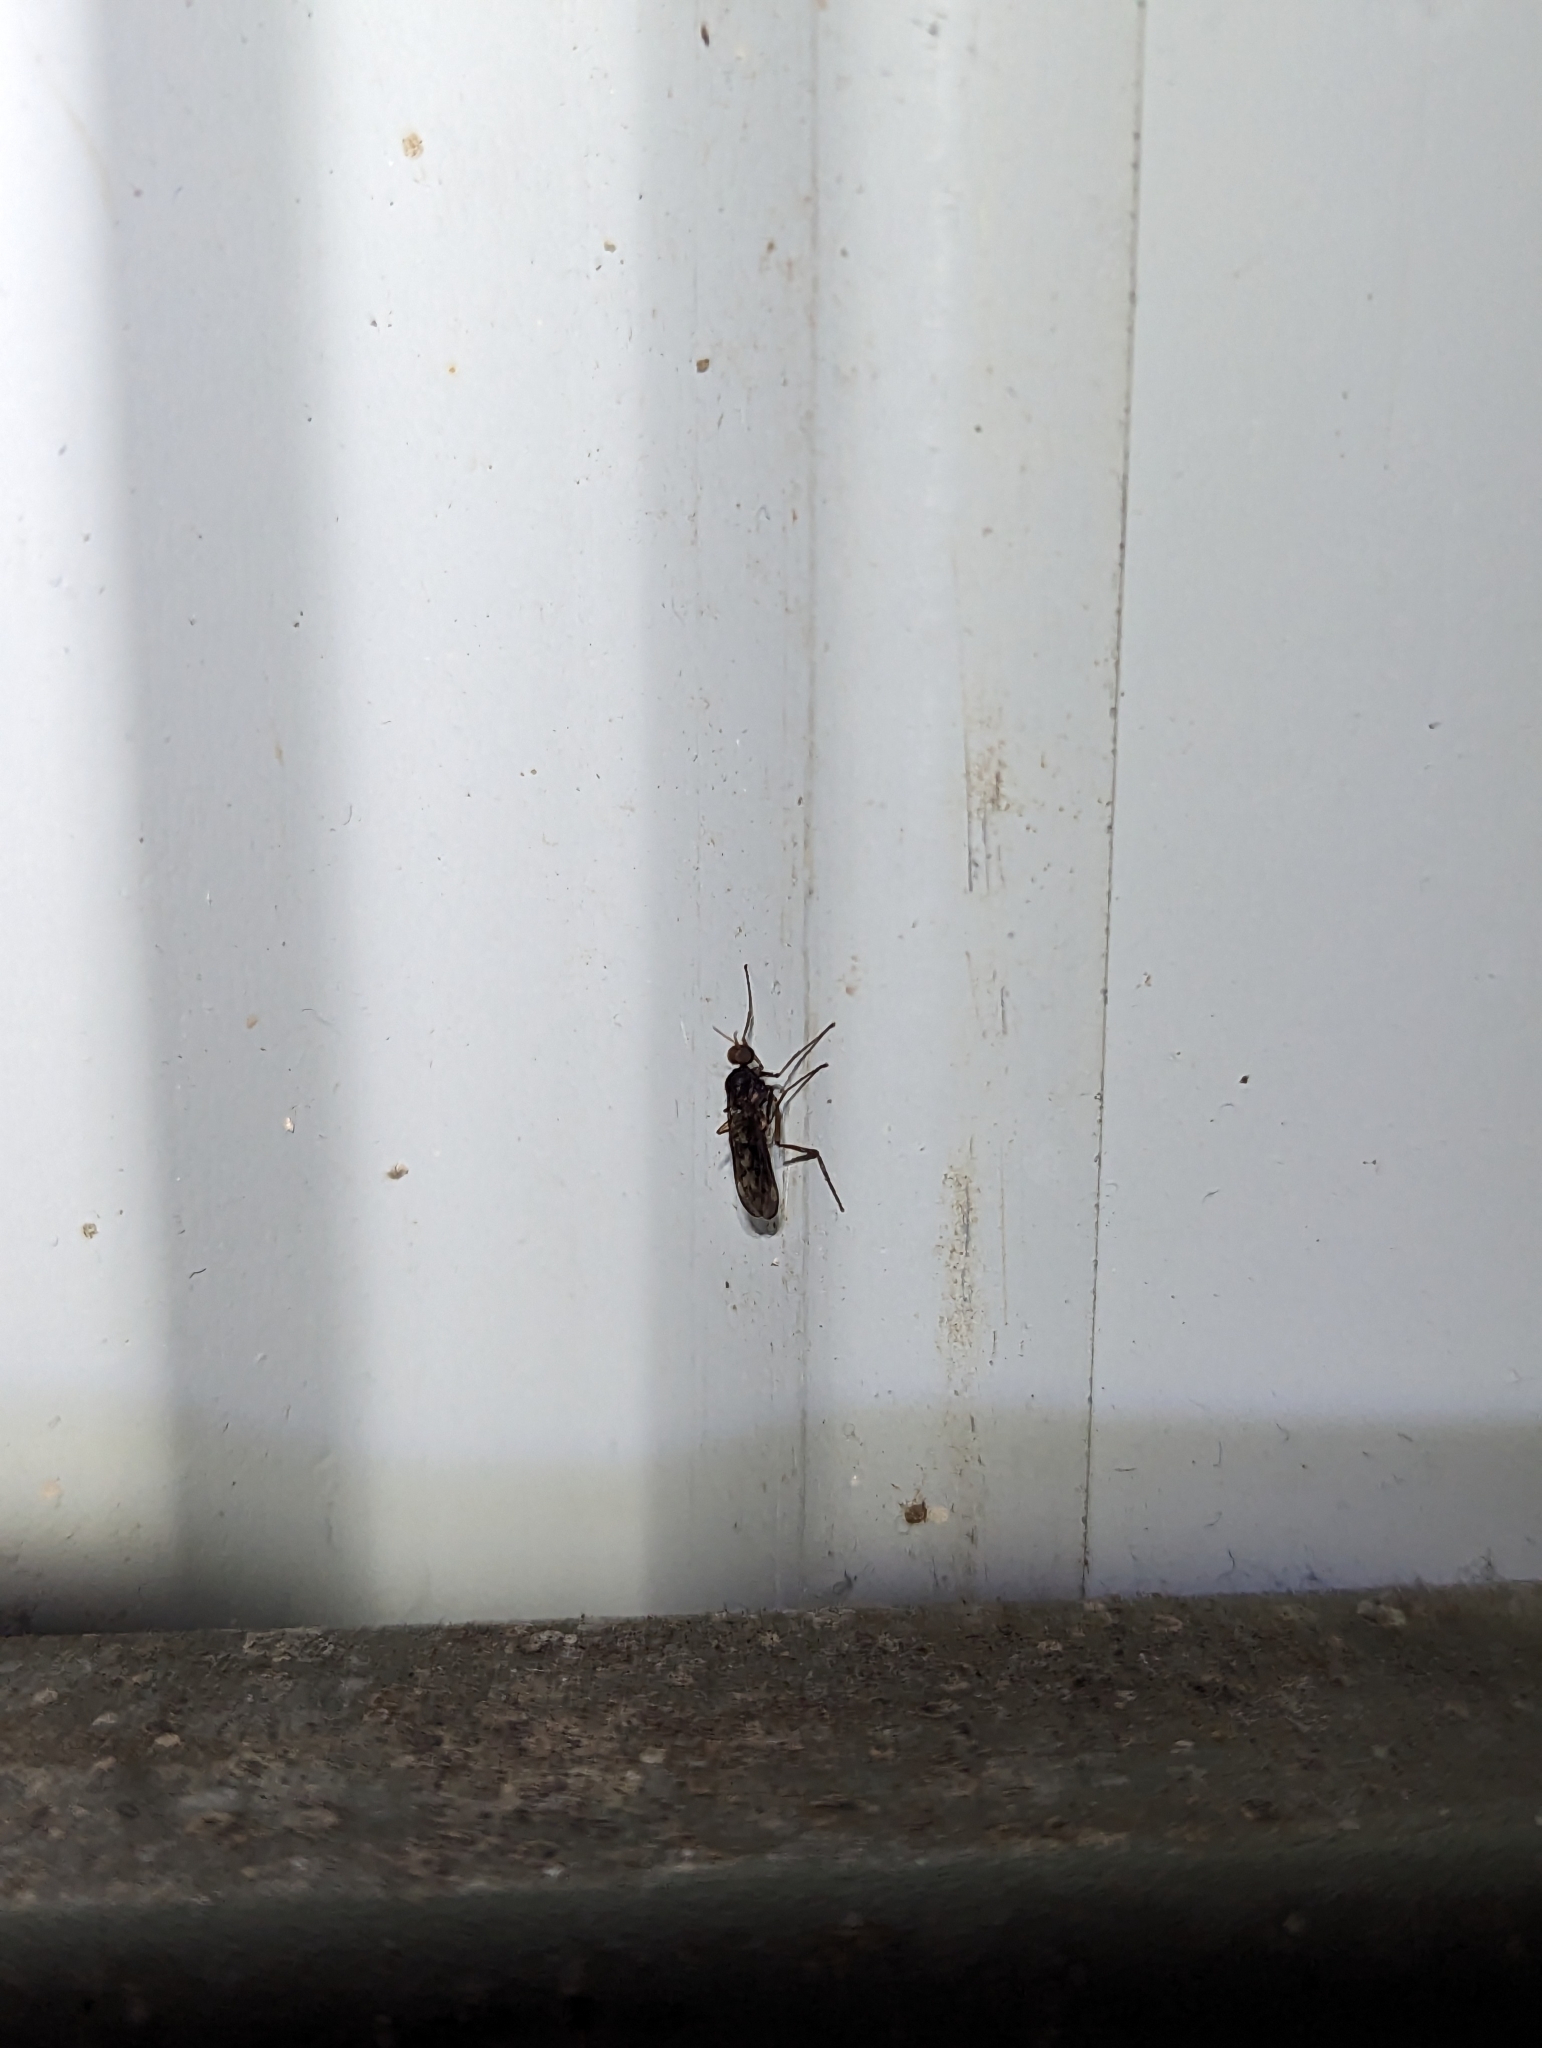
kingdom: Animalia
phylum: Arthropoda
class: Insecta
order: Diptera
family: Anisopodidae
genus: Sylvicola
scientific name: Sylvicola neozelandicus
